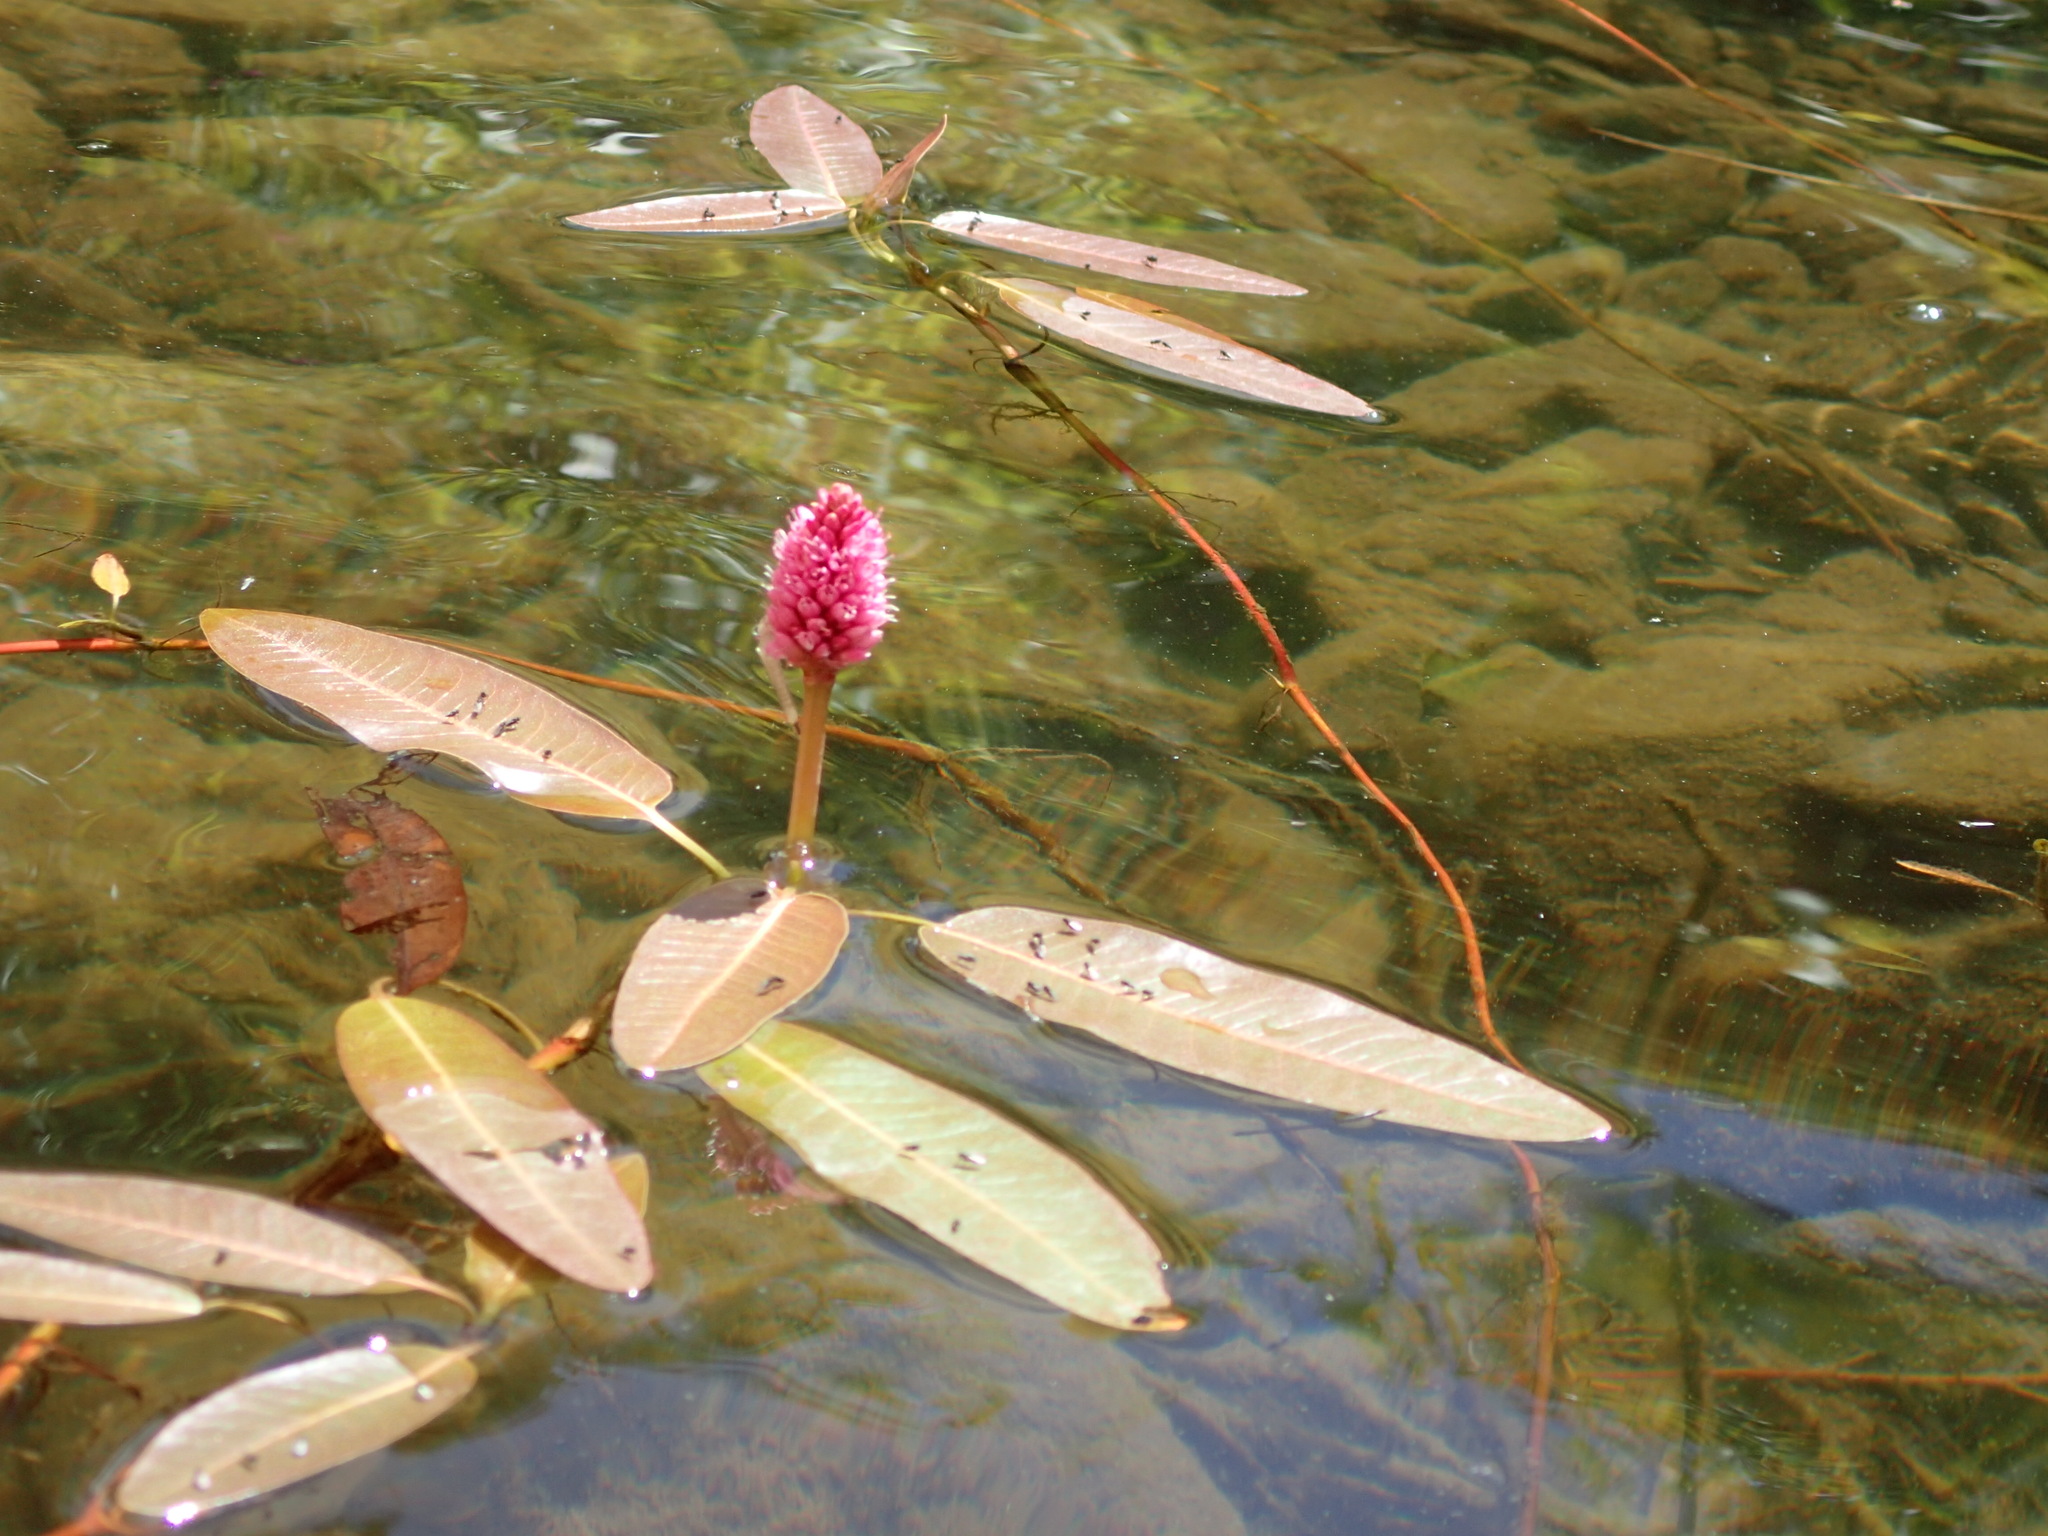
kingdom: Plantae
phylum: Tracheophyta
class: Magnoliopsida
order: Caryophyllales
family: Polygonaceae
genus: Persicaria
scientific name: Persicaria amphibia
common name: Amphibious bistort
